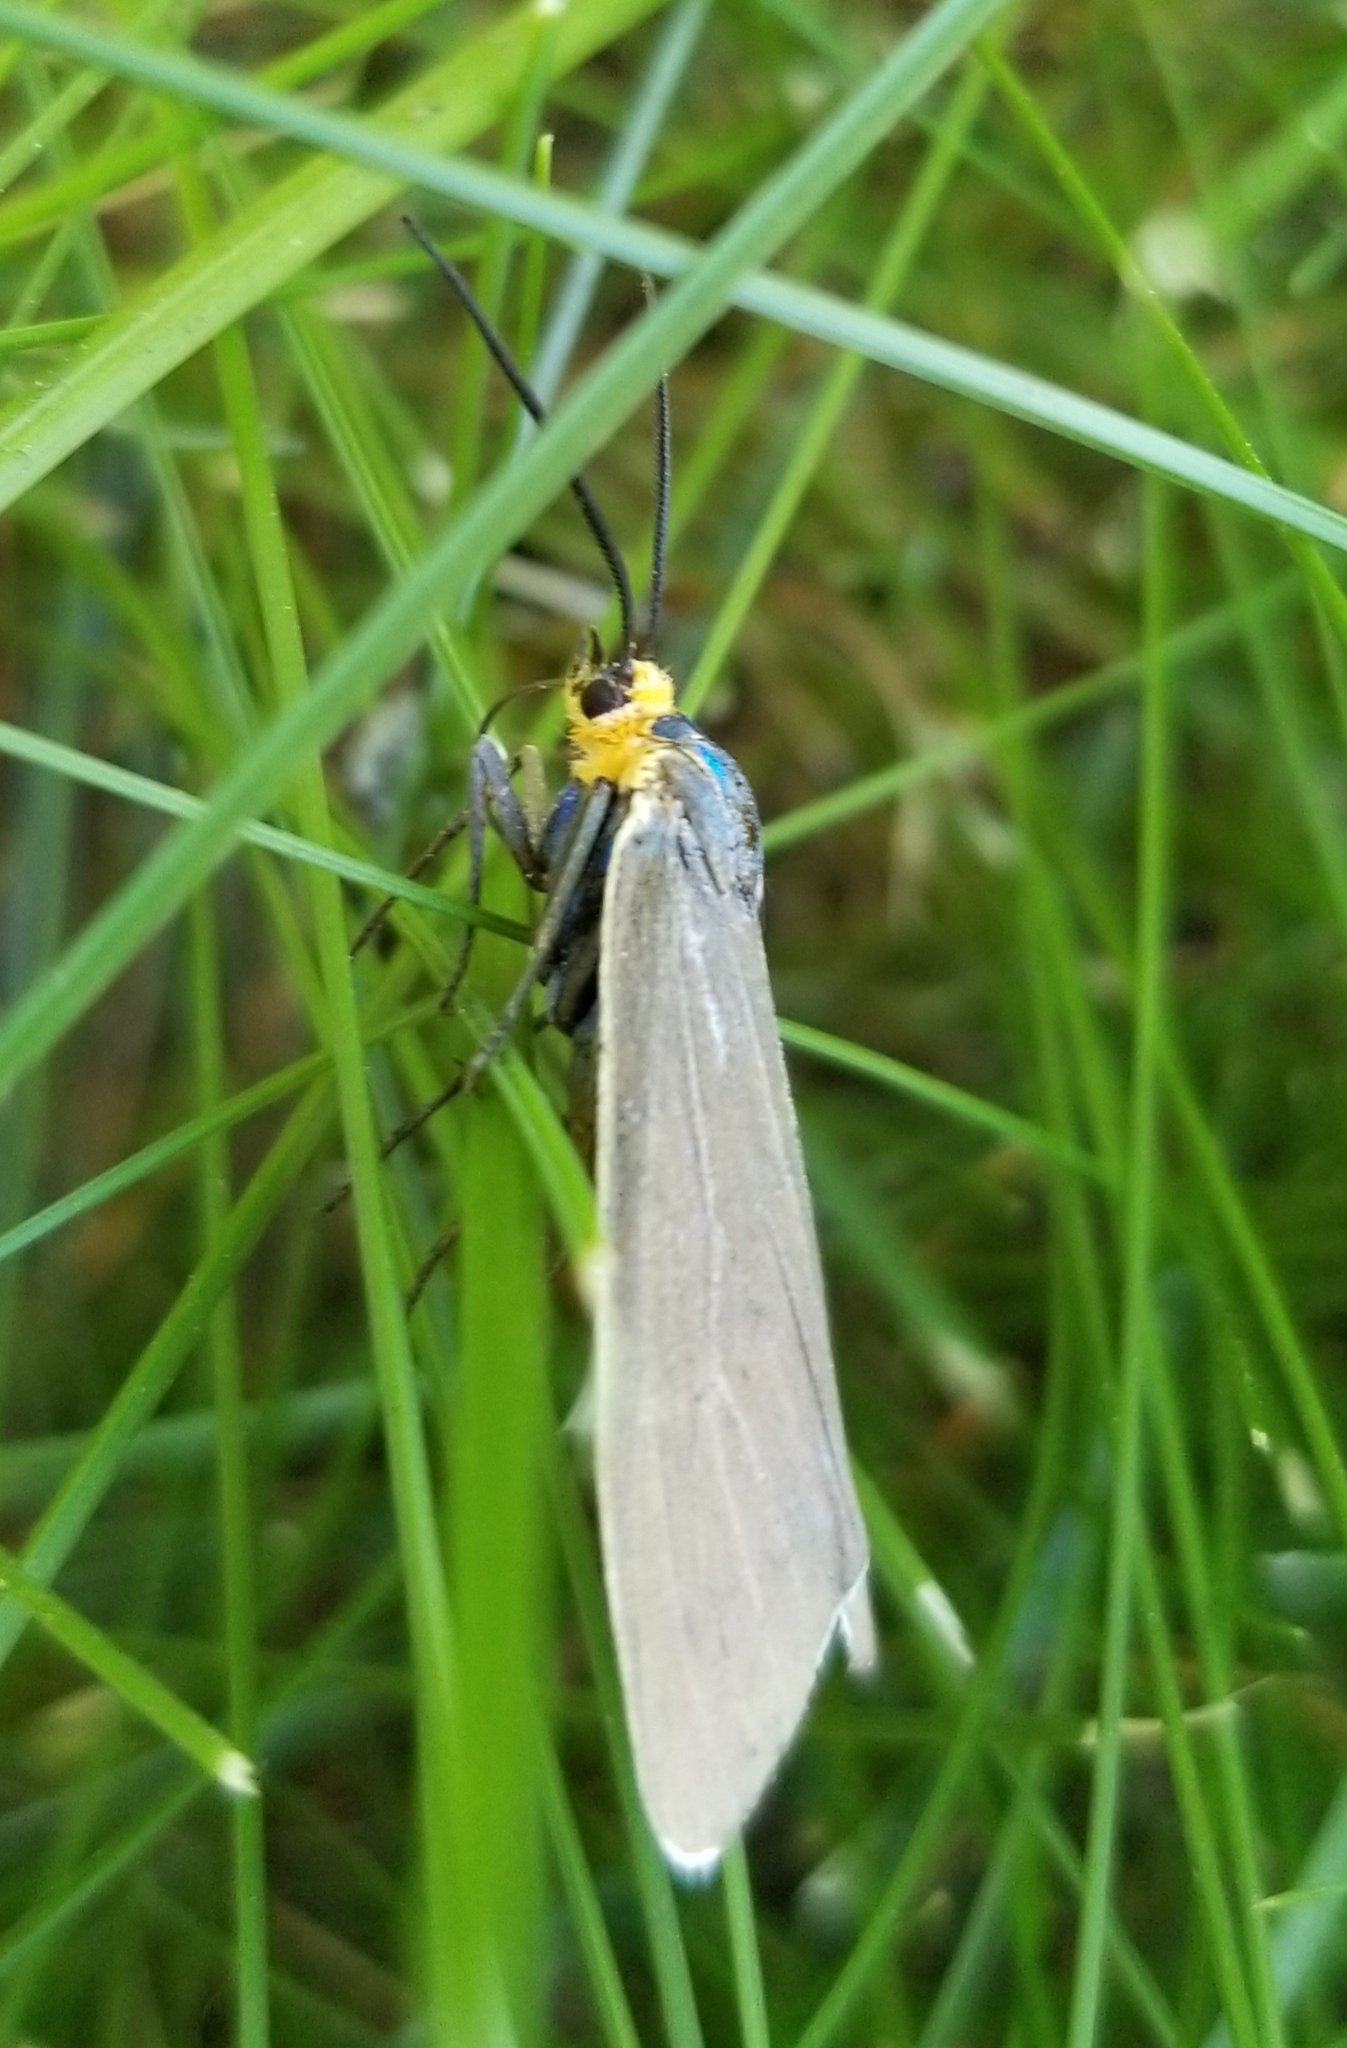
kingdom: Animalia
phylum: Arthropoda
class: Insecta
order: Lepidoptera
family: Erebidae
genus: Ctenucha
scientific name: Ctenucha virginica
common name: Virginia ctenucha moth
